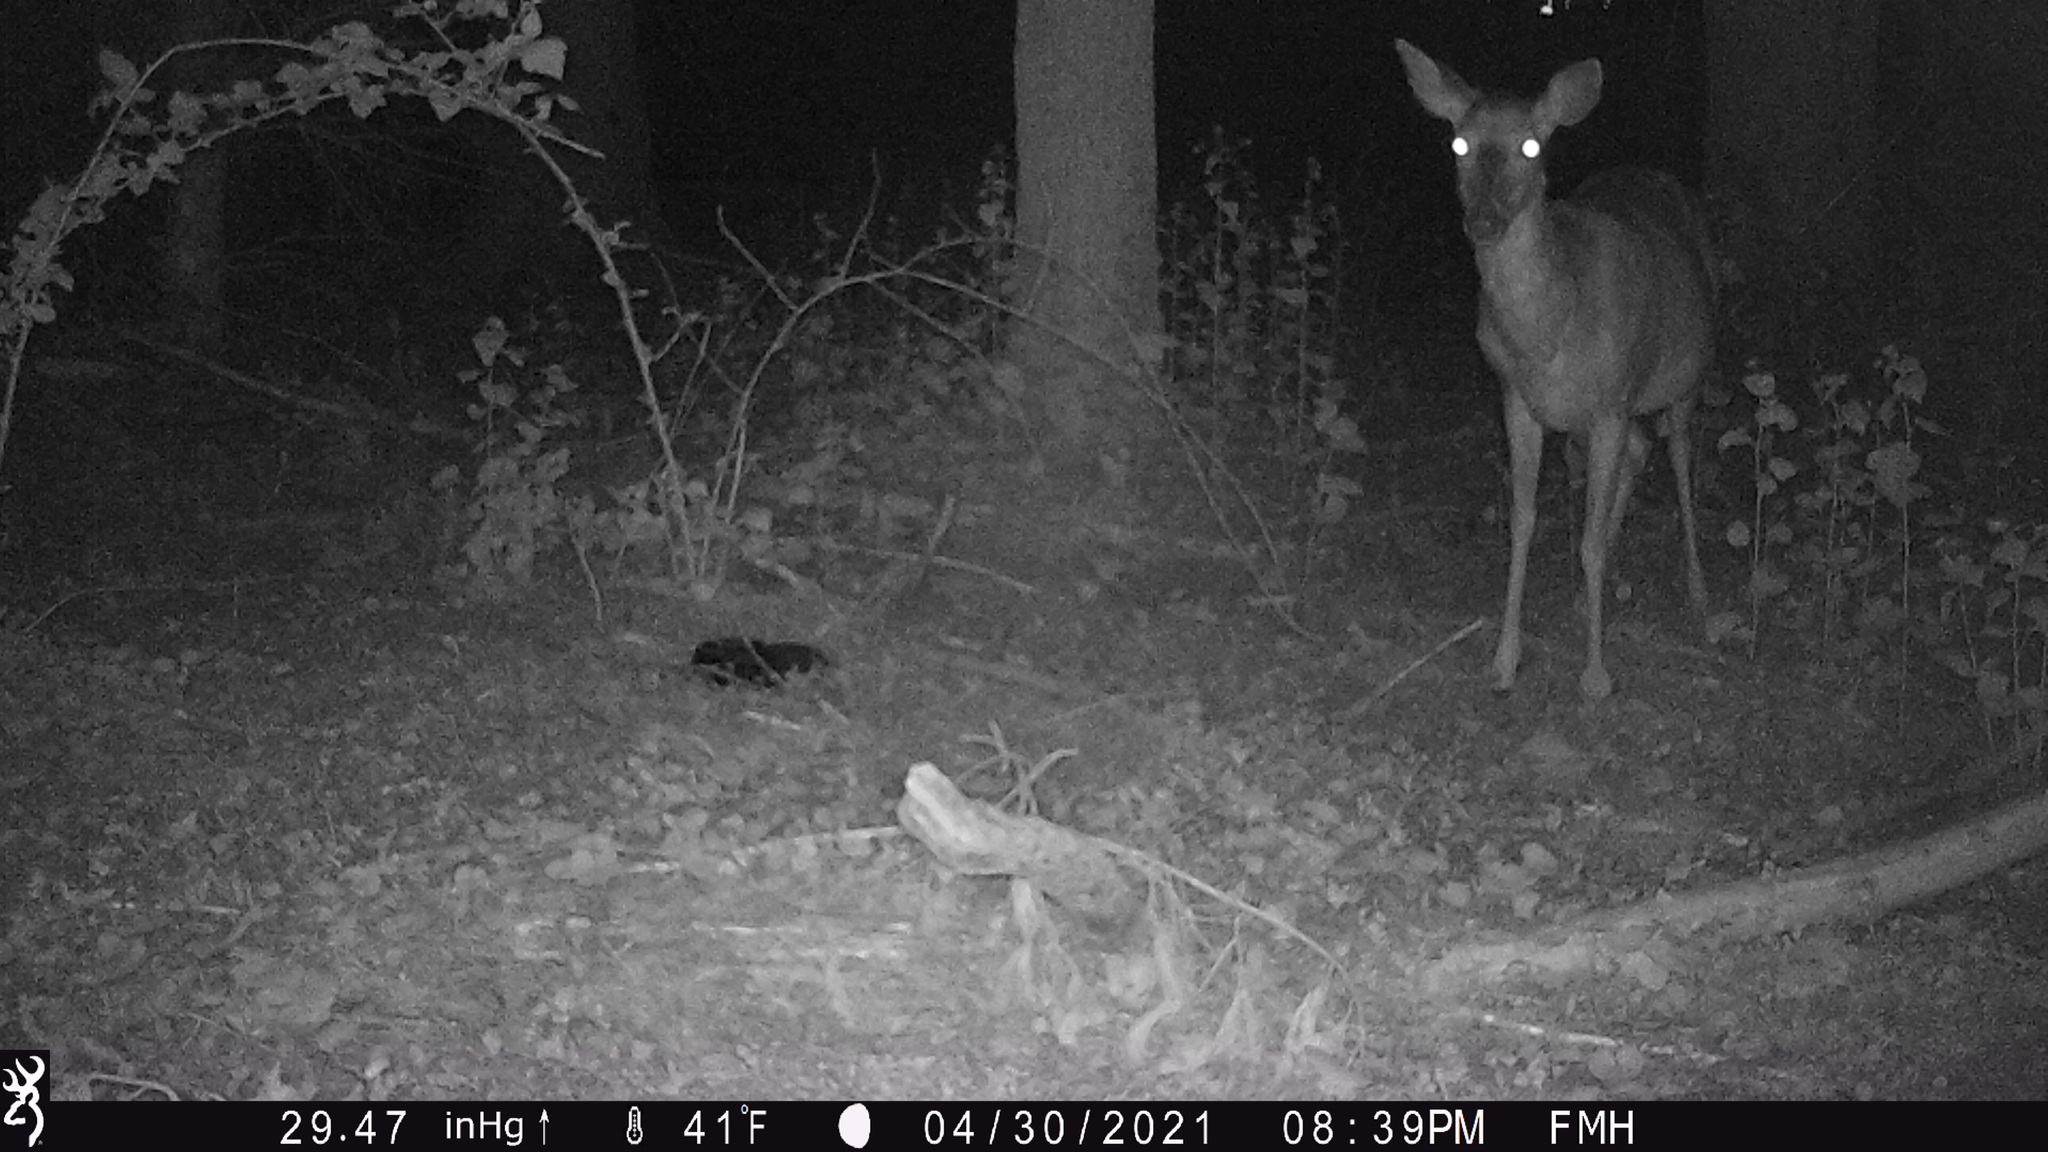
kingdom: Animalia
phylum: Chordata
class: Mammalia
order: Artiodactyla
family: Cervidae
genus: Odocoileus
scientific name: Odocoileus virginianus
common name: White-tailed deer
